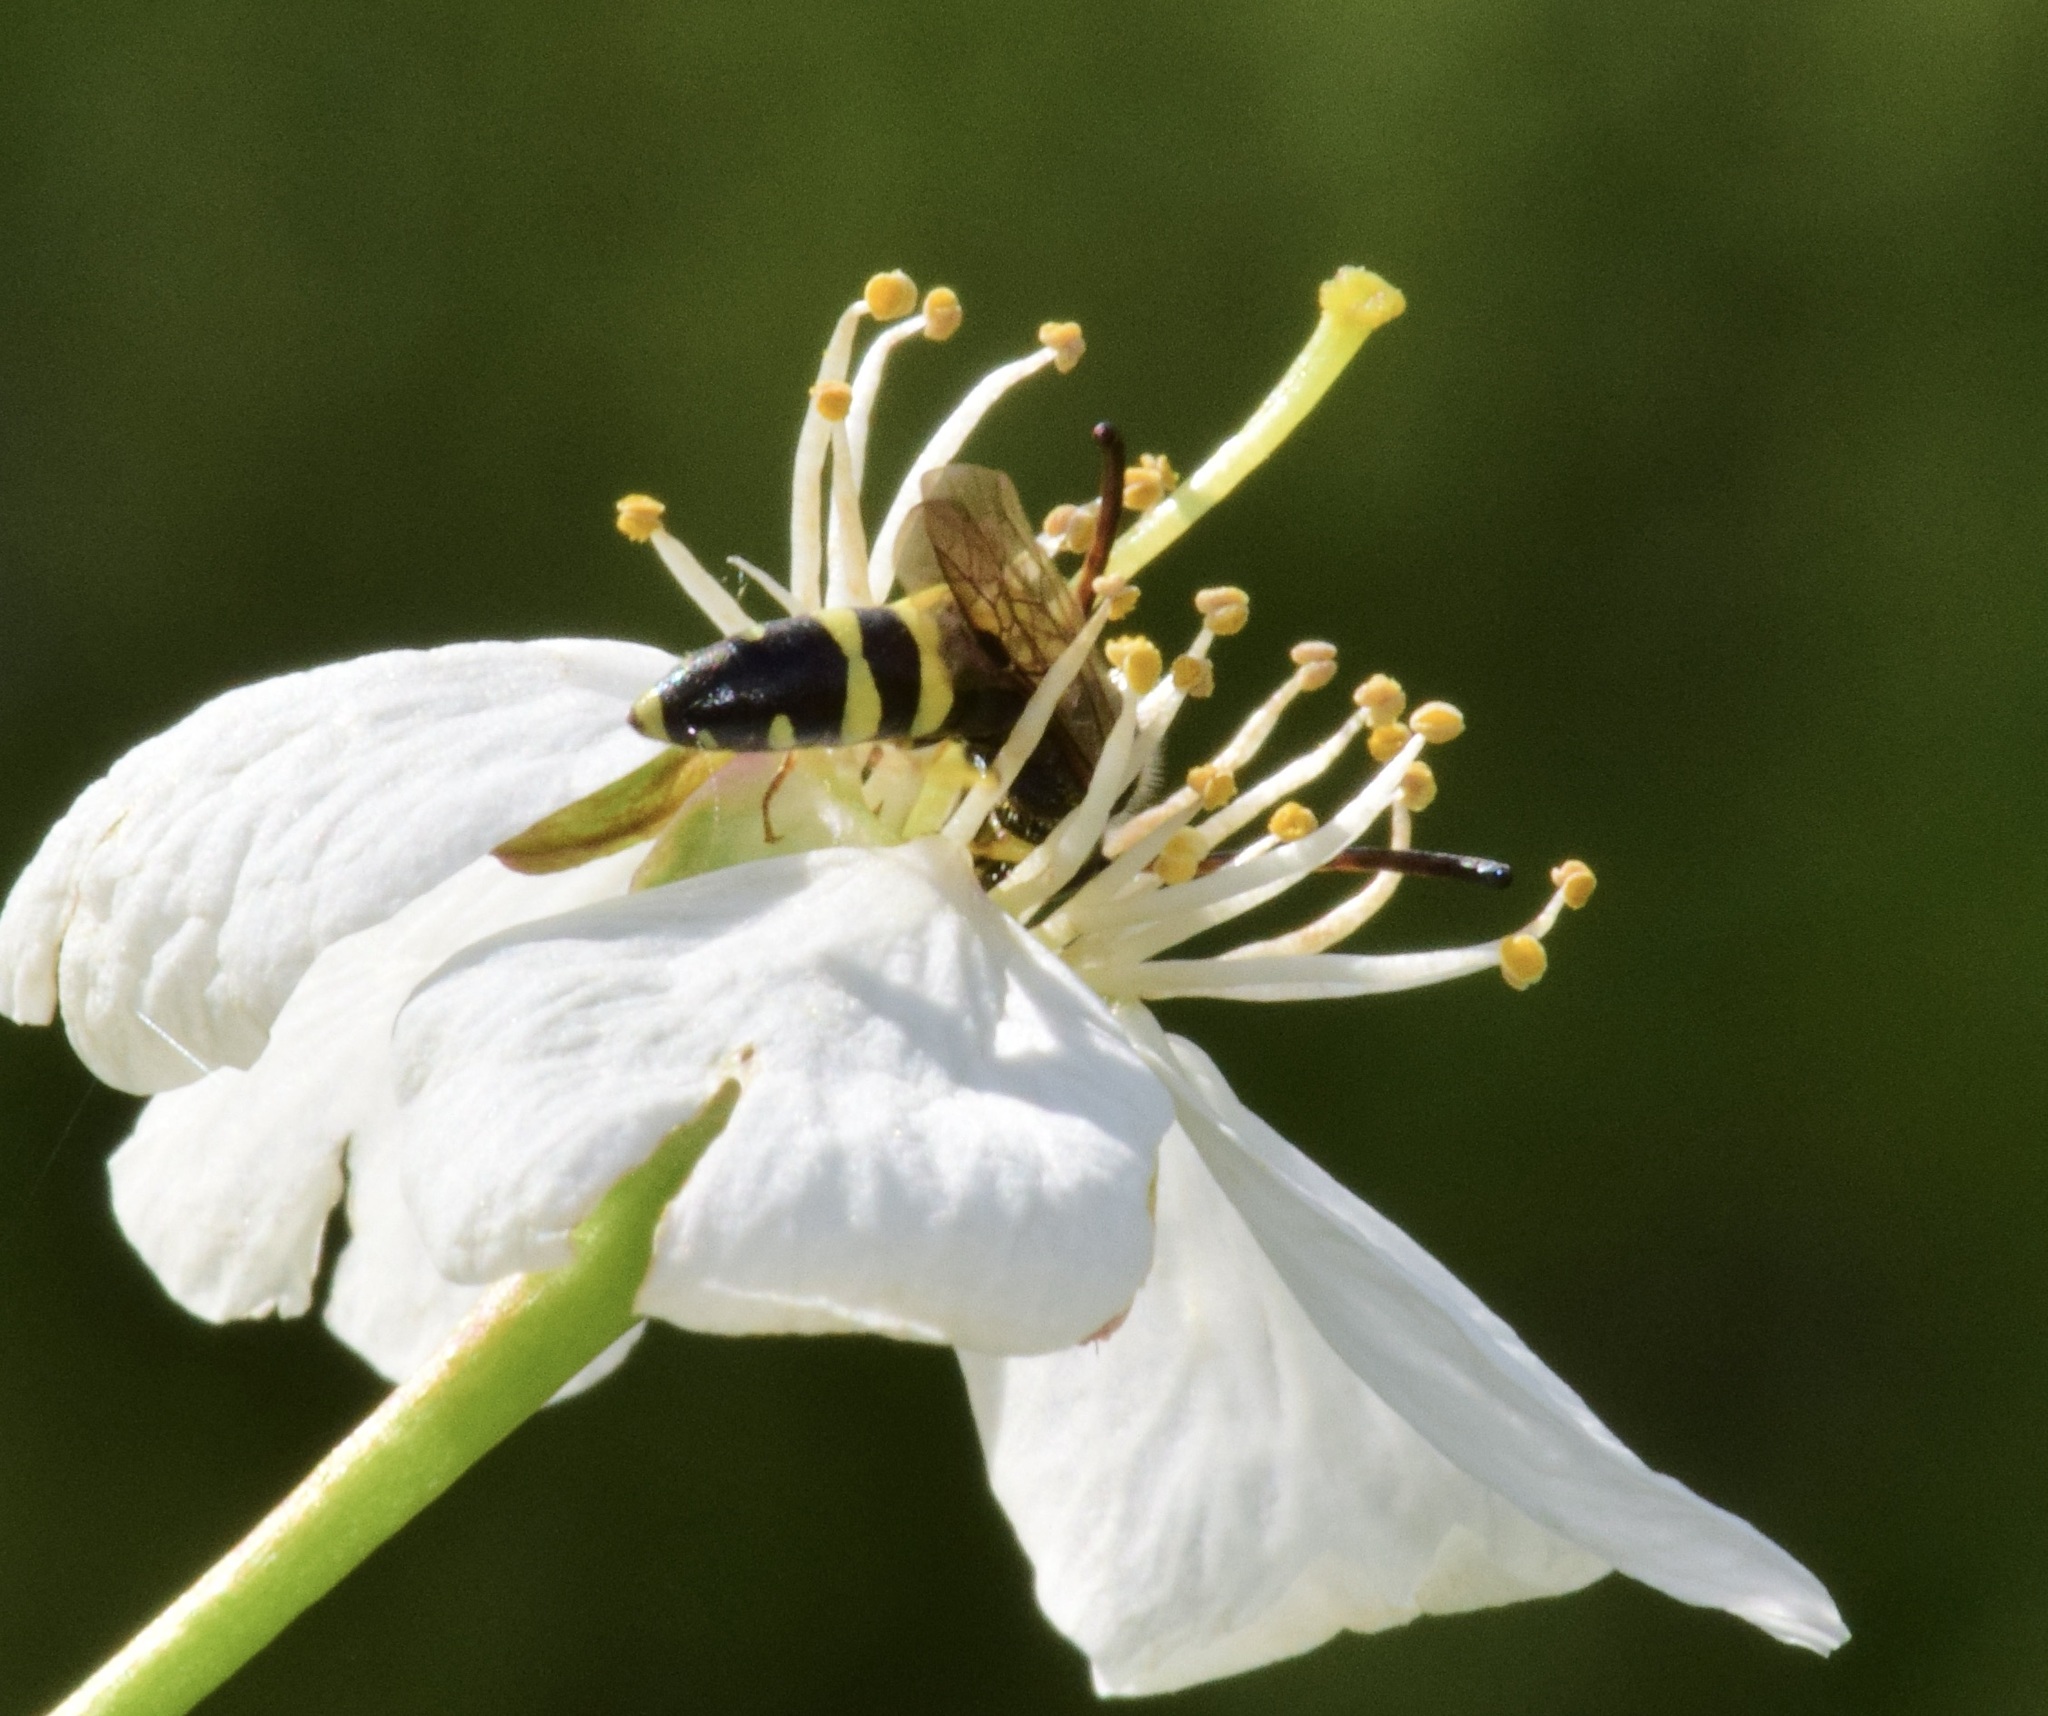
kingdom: Animalia
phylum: Arthropoda
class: Insecta
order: Hymenoptera
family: Sapygidae
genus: Sapyga
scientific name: Sapyga
